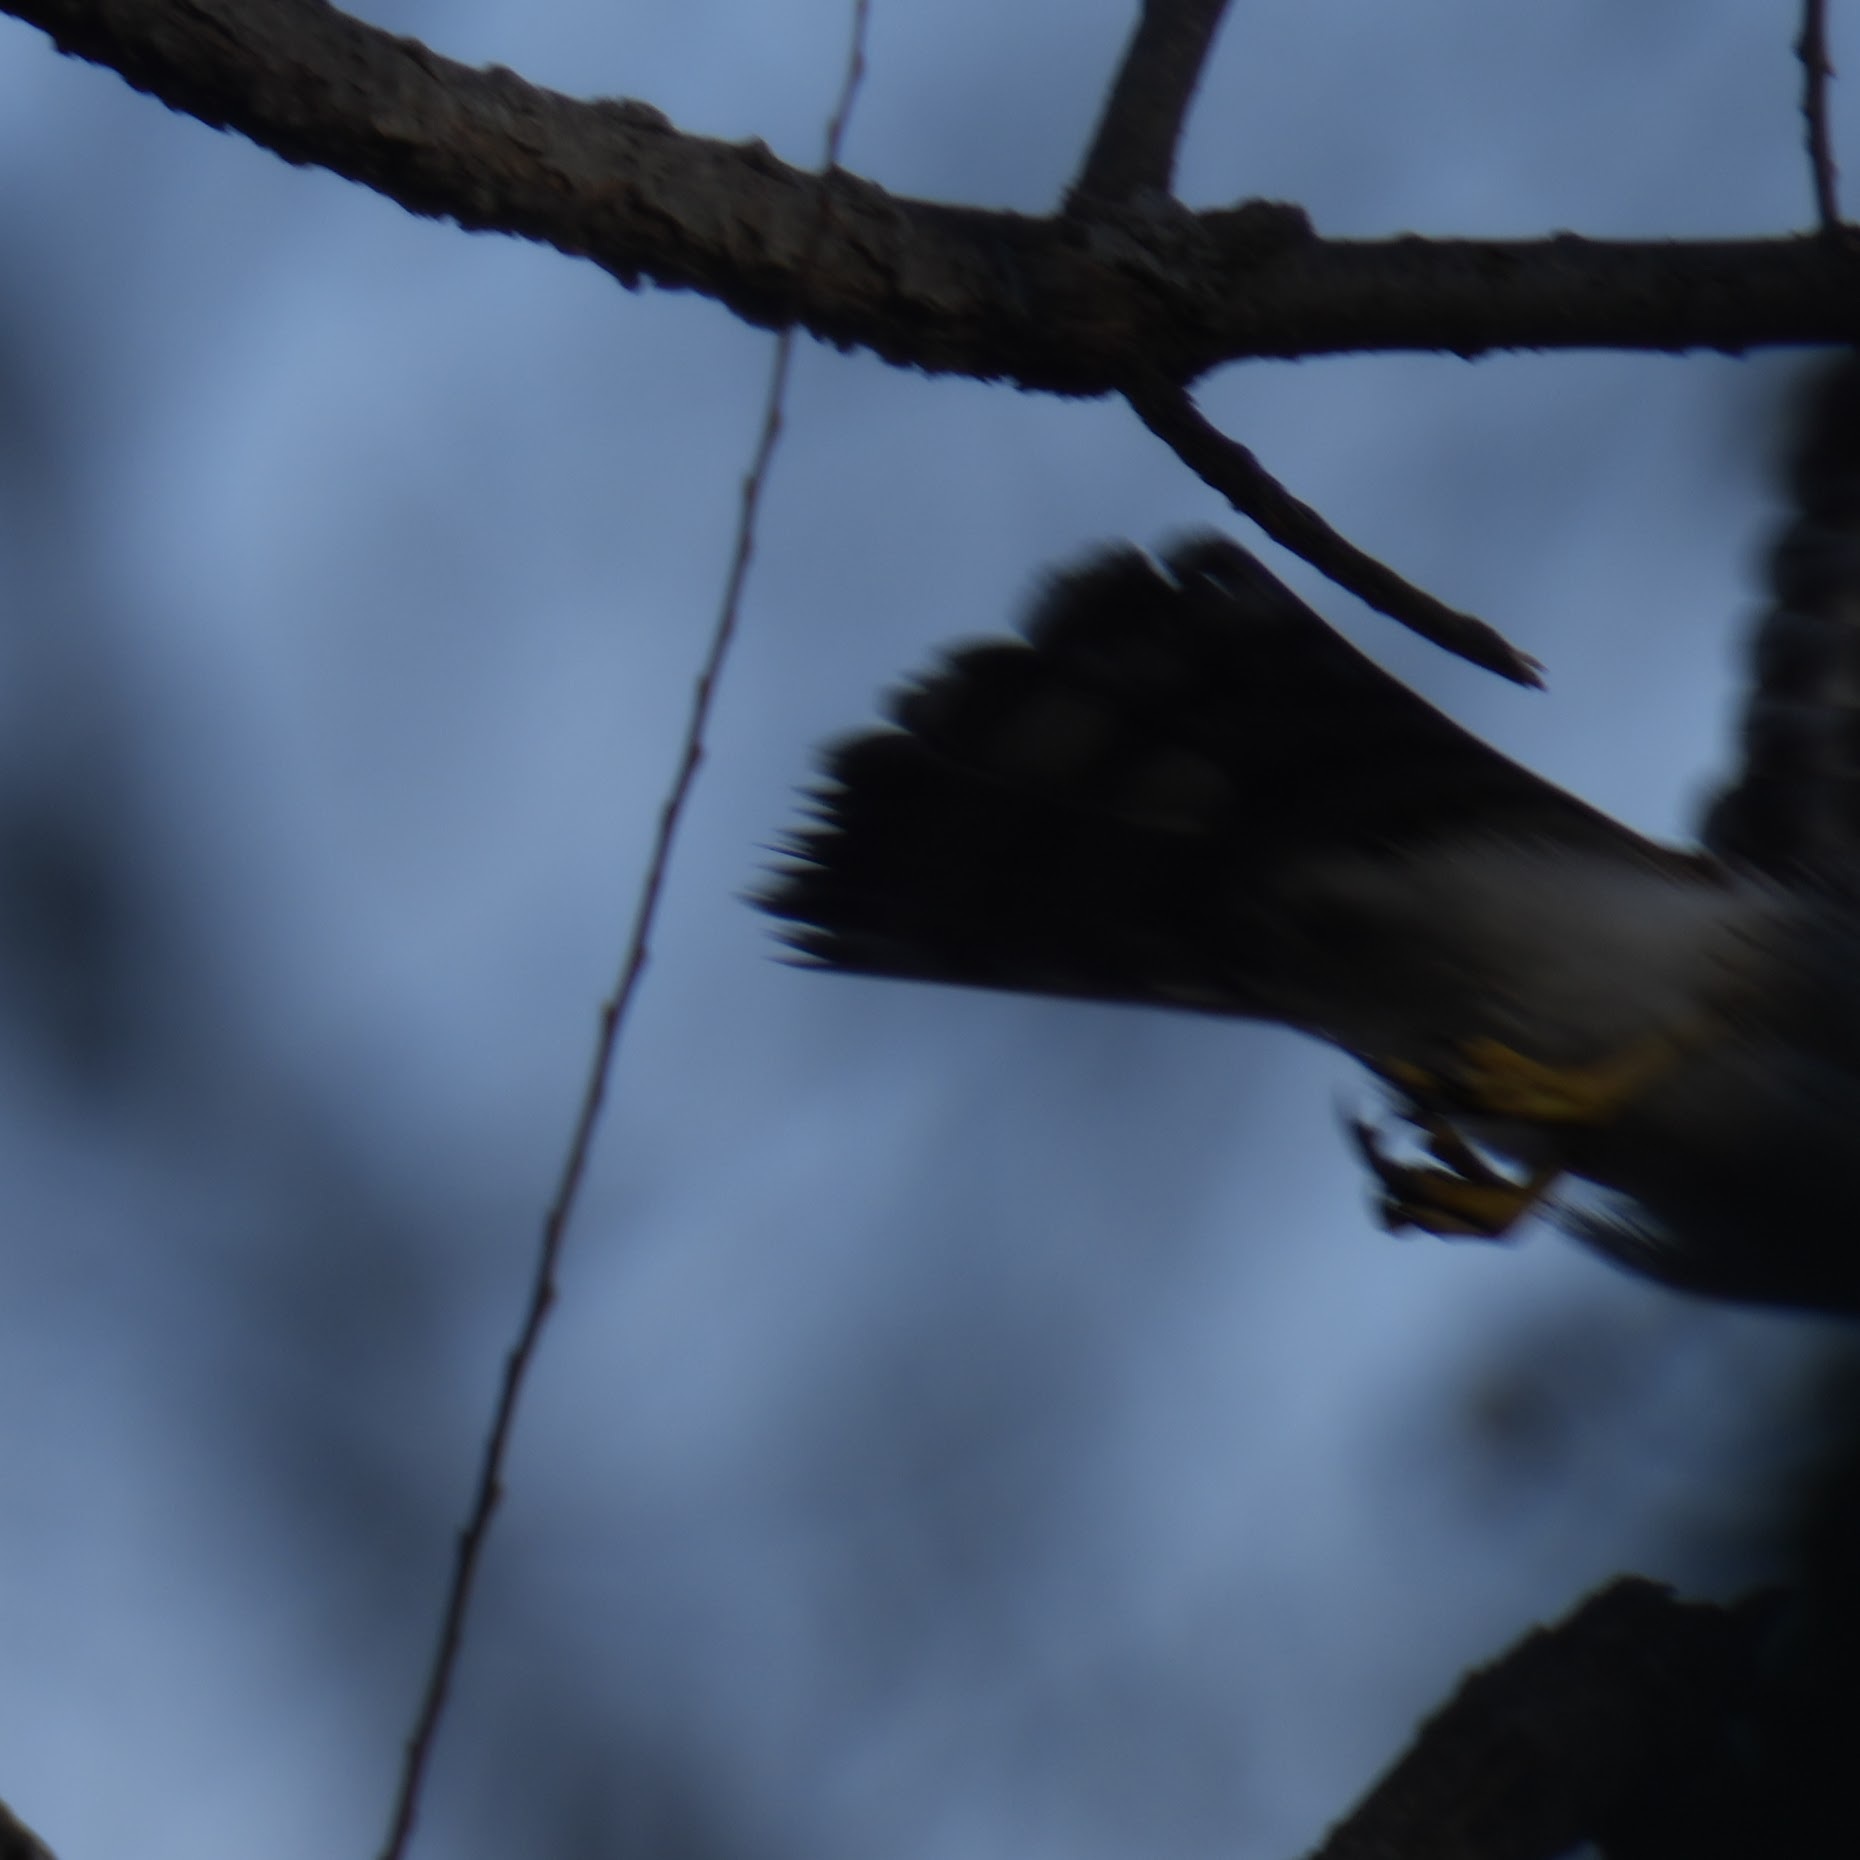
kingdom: Animalia
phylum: Chordata
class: Aves
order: Accipitriformes
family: Accipitridae
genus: Accipiter
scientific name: Accipiter cooperii
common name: Cooper's hawk
